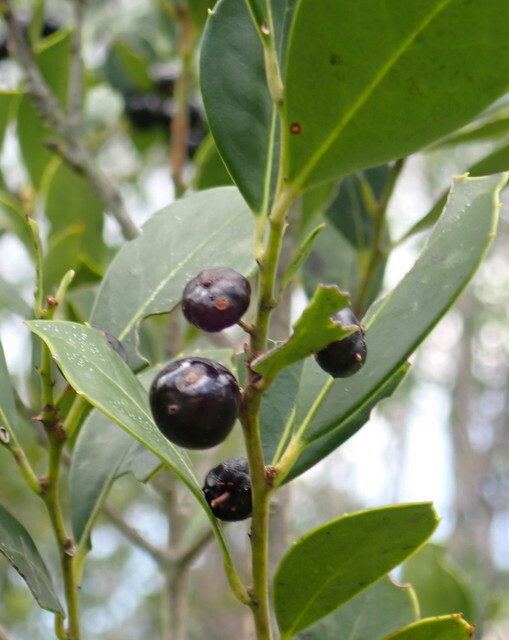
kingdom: Plantae
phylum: Tracheophyta
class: Magnoliopsida
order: Aquifoliales
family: Aquifoliaceae
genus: Ilex
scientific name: Ilex coriacea
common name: Sweet gallberry
